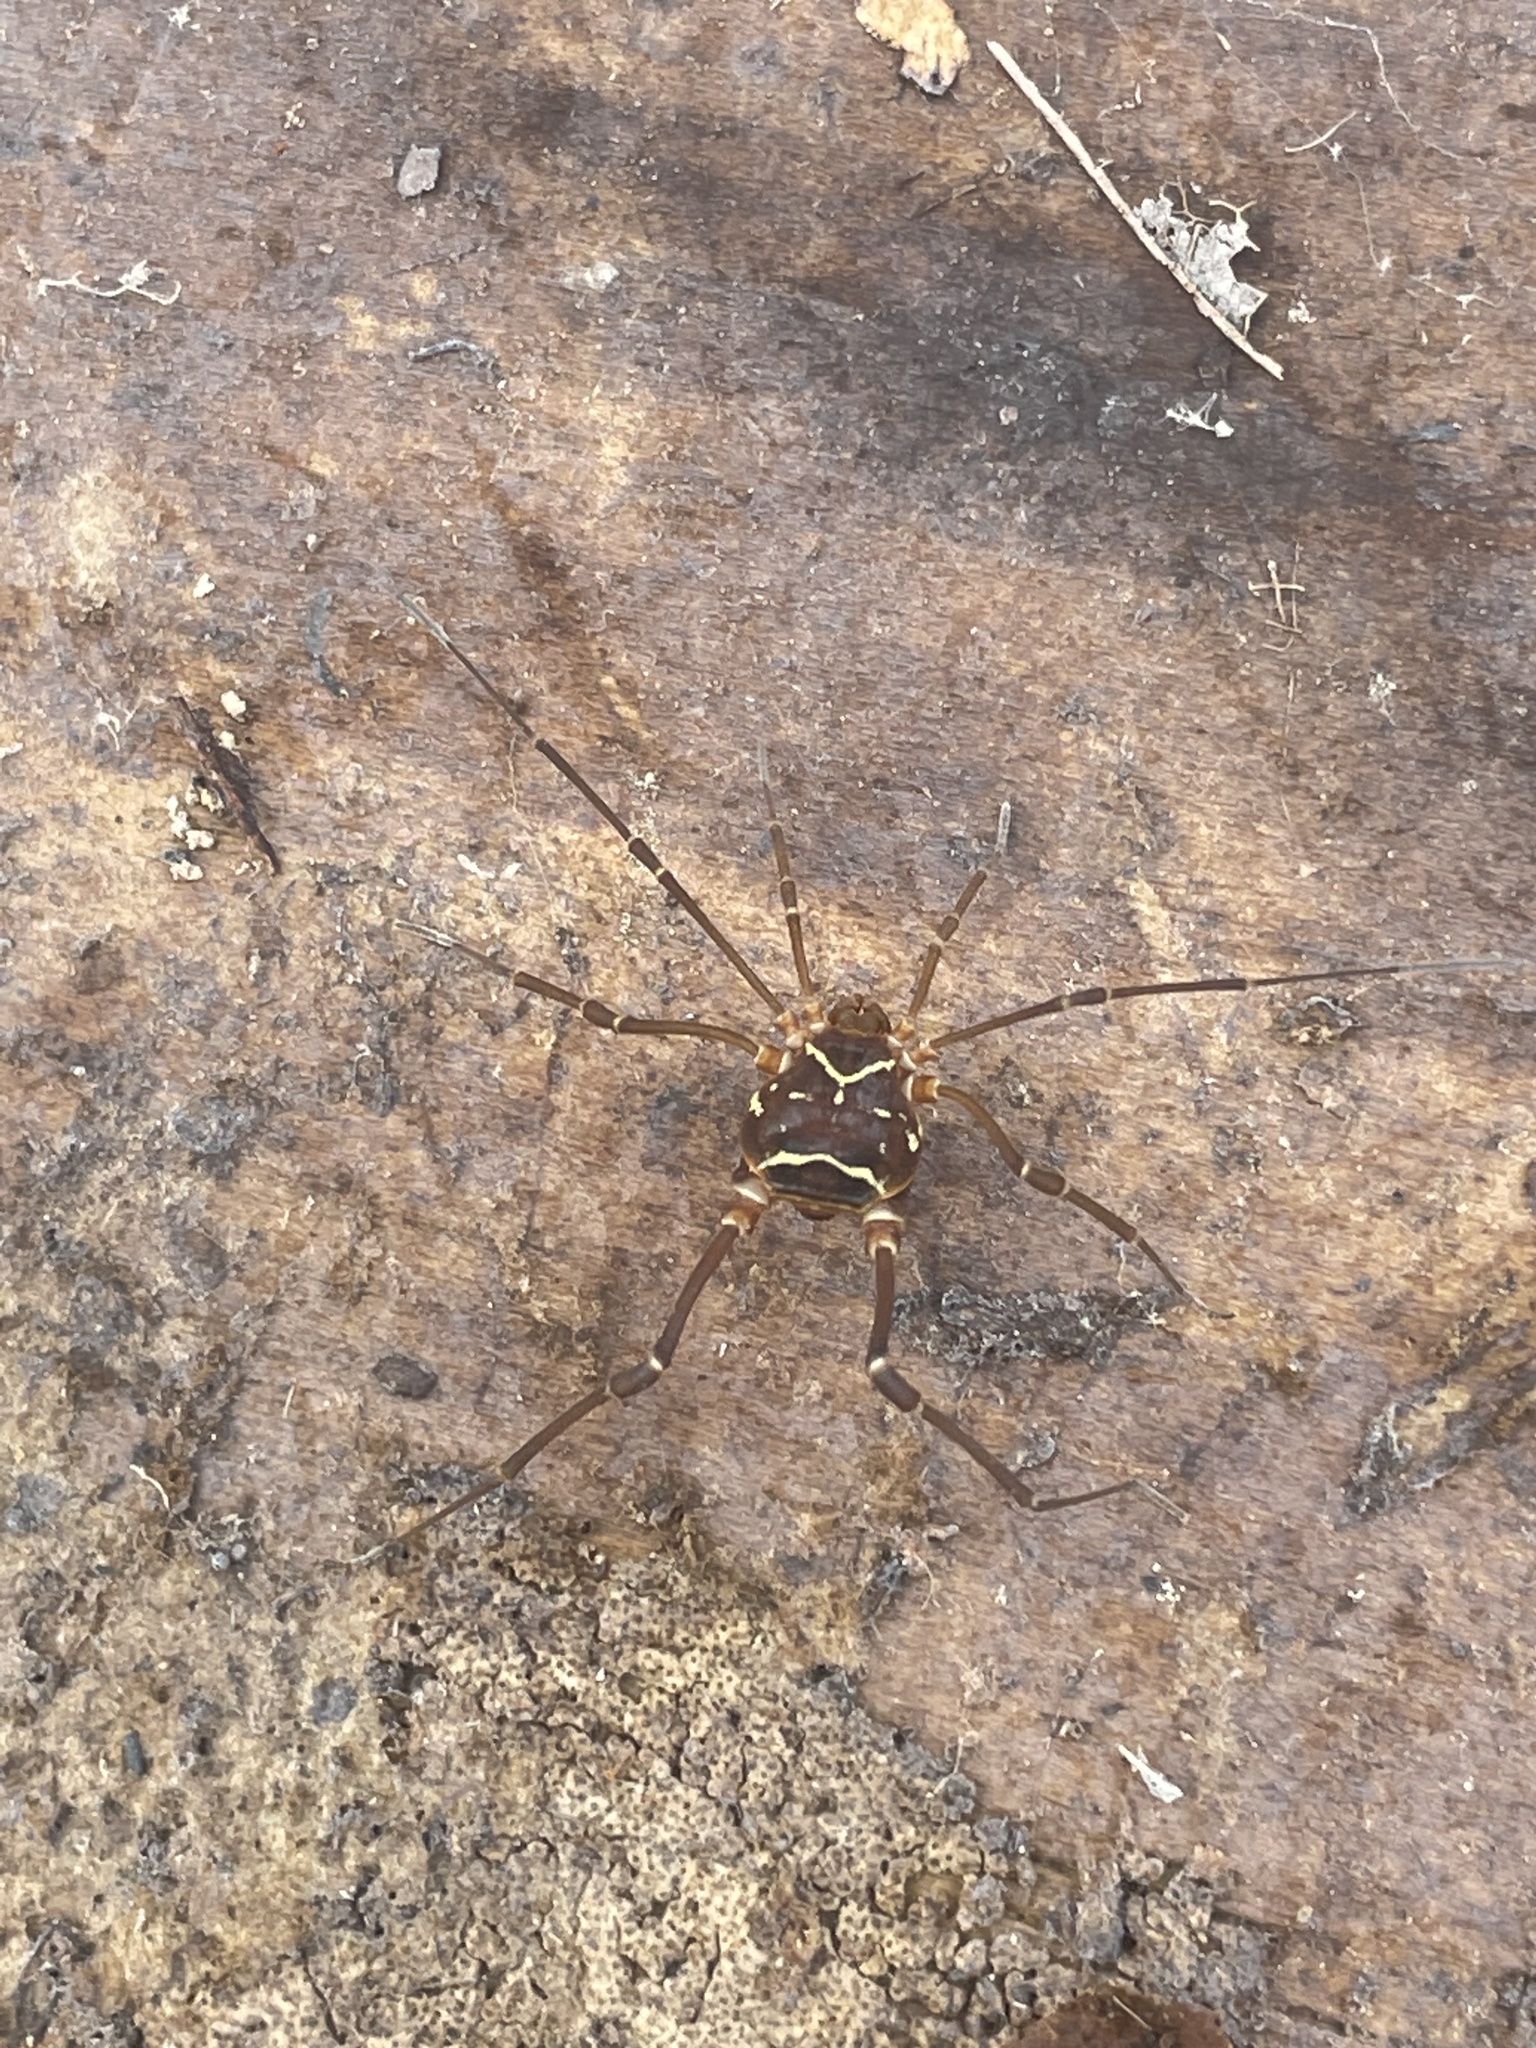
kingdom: Animalia
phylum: Arthropoda
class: Arachnida
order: Opiliones
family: Cosmetidae
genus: Libitioides
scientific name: Libitioides sayi
